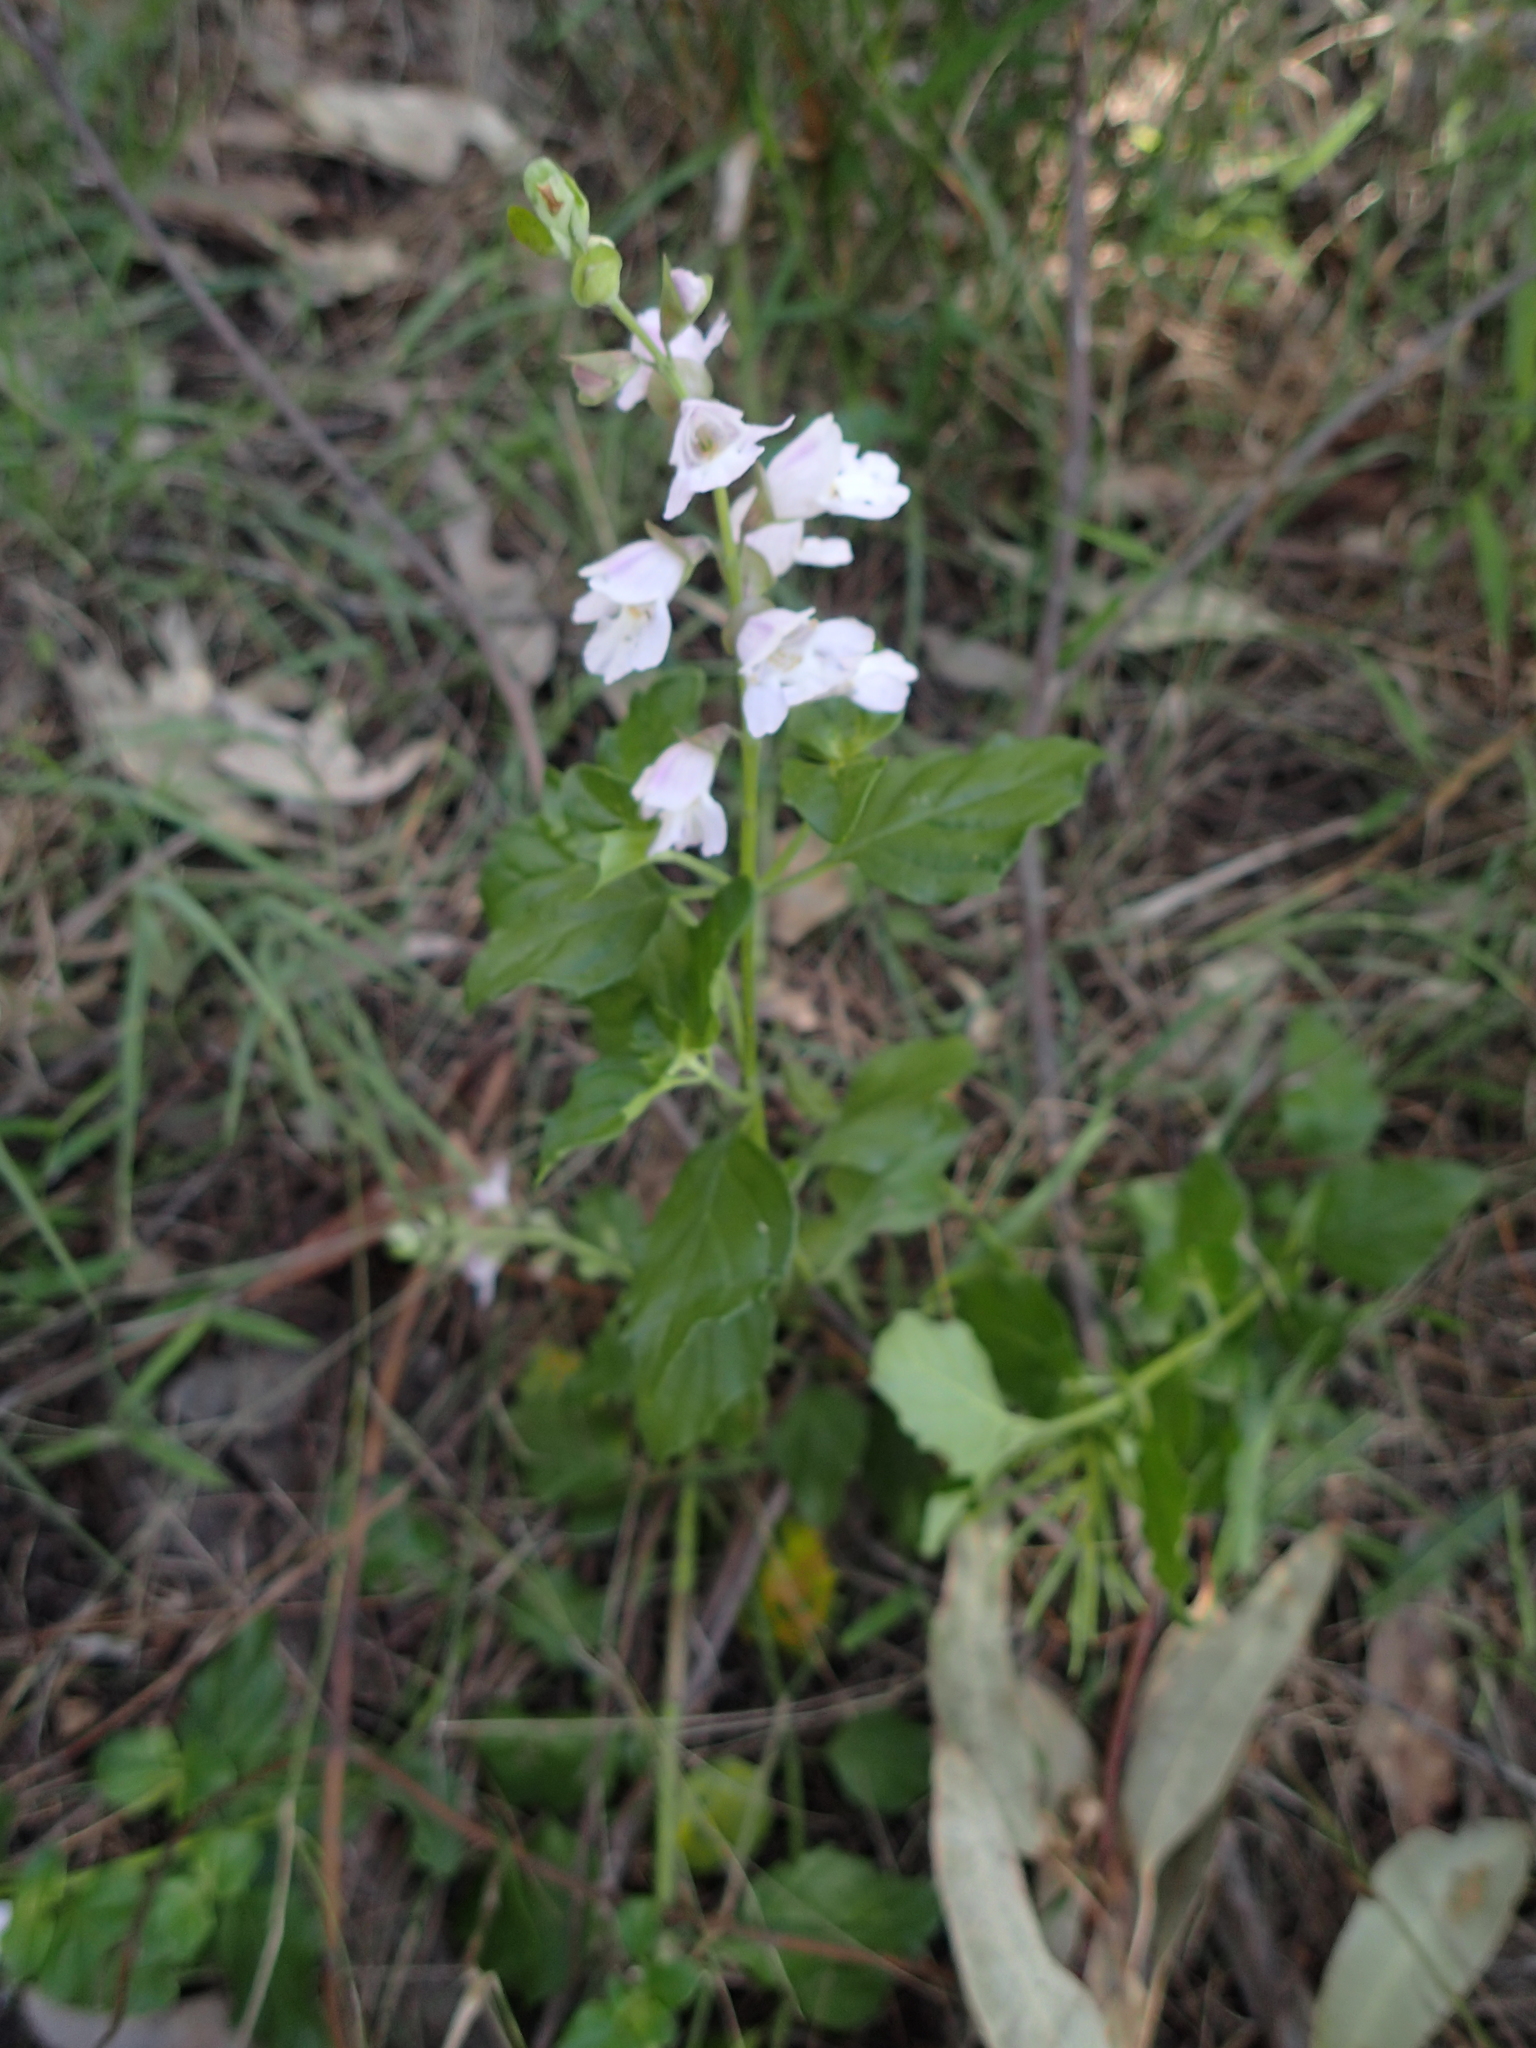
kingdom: Plantae
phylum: Tracheophyta
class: Magnoliopsida
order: Lamiales
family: Lamiaceae
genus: Prostanthera
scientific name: Prostanthera prunelloides
